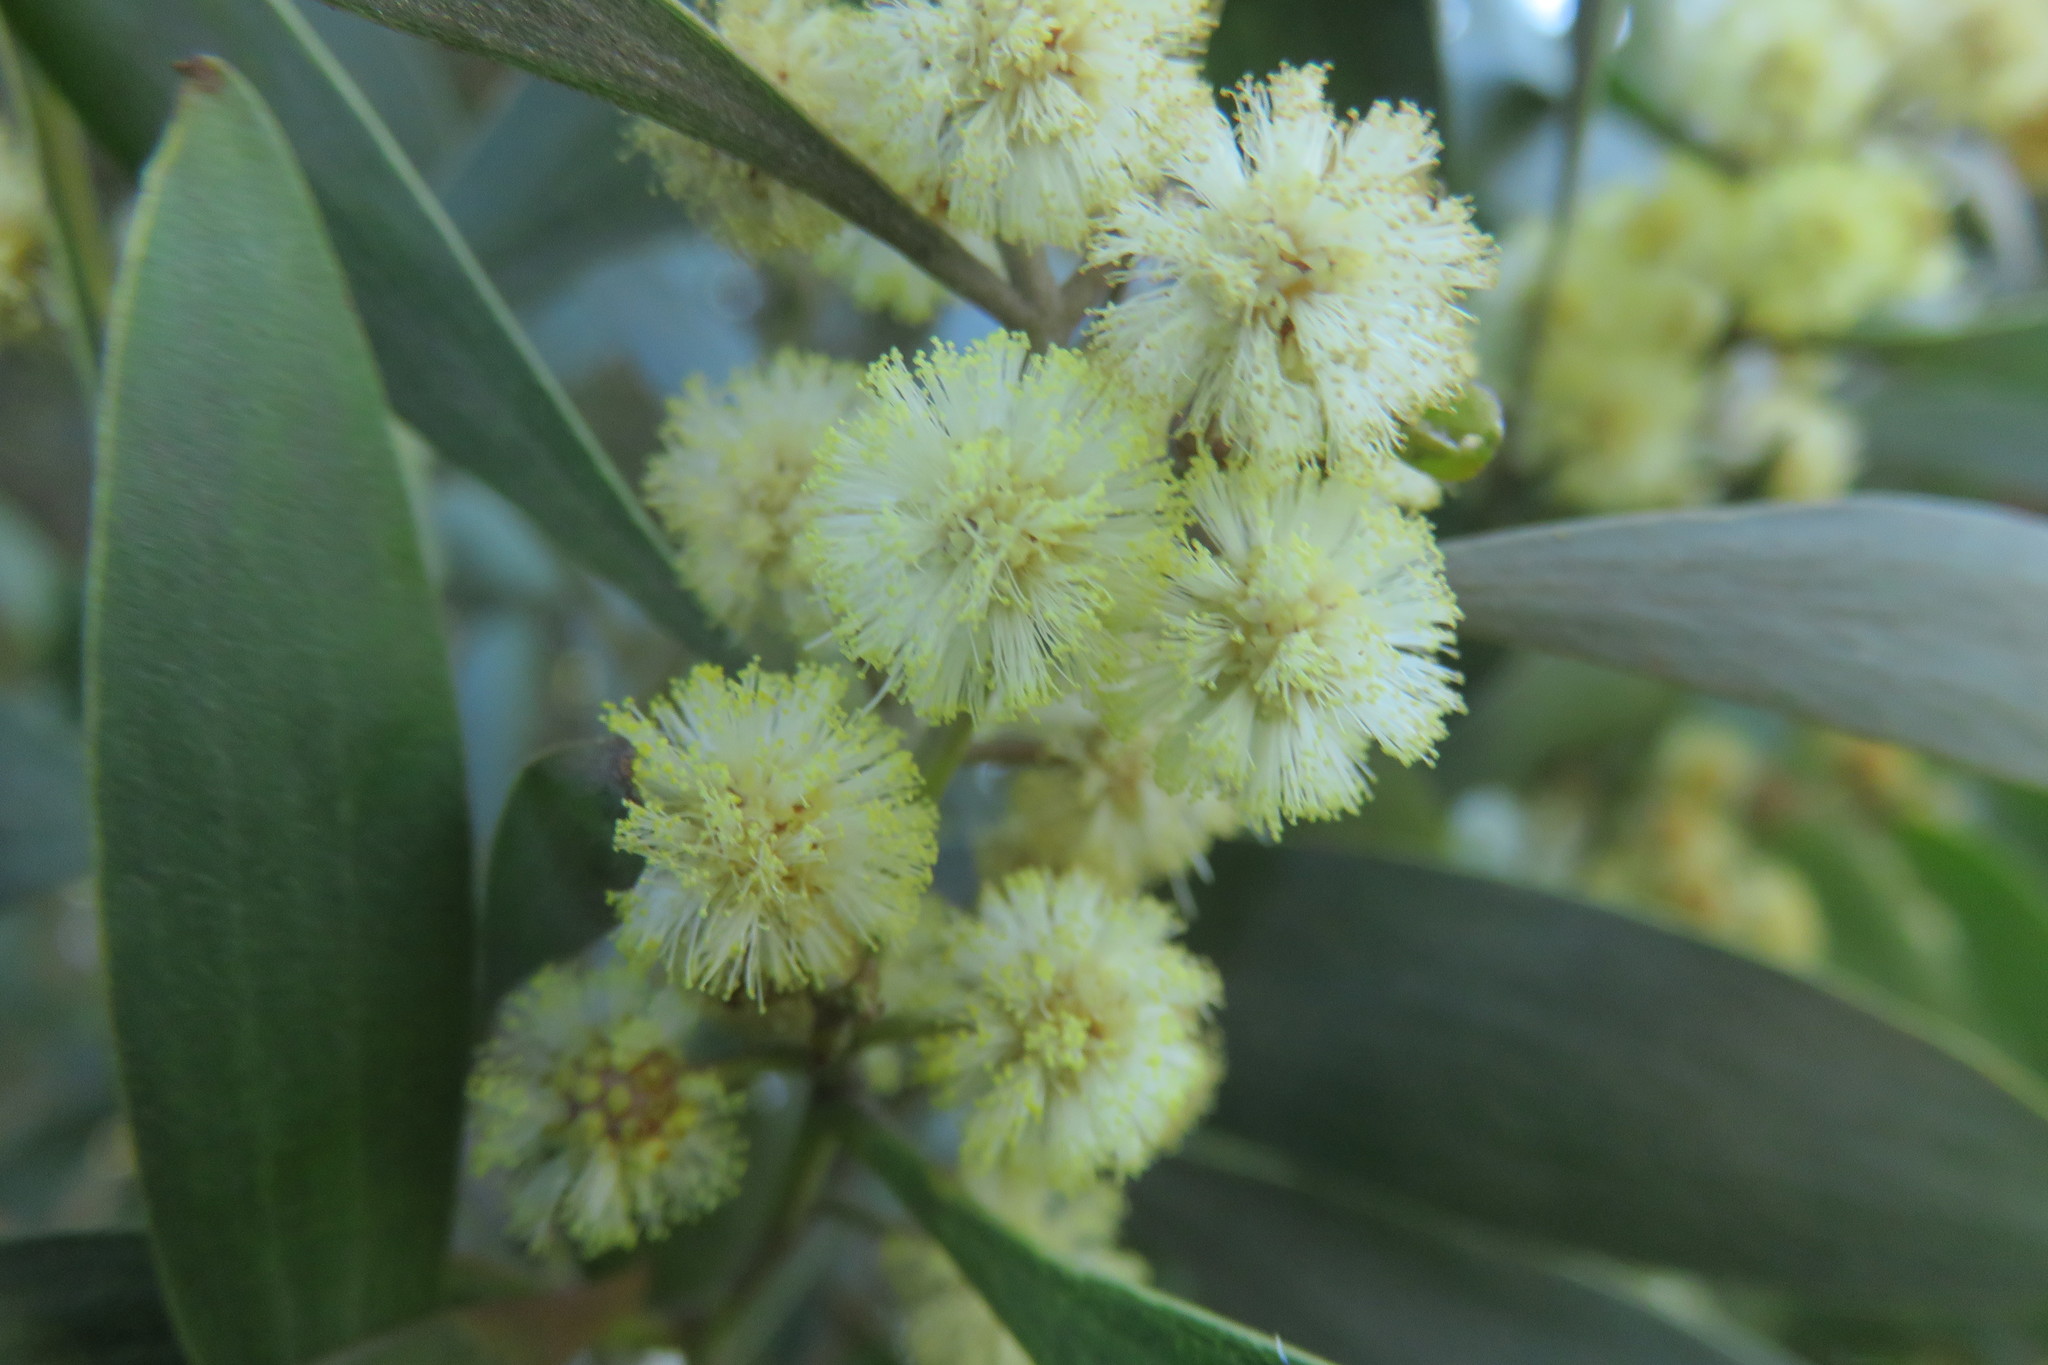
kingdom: Plantae
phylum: Tracheophyta
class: Magnoliopsida
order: Fabales
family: Fabaceae
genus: Acacia
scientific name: Acacia melanoxylon
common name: Blackwood
